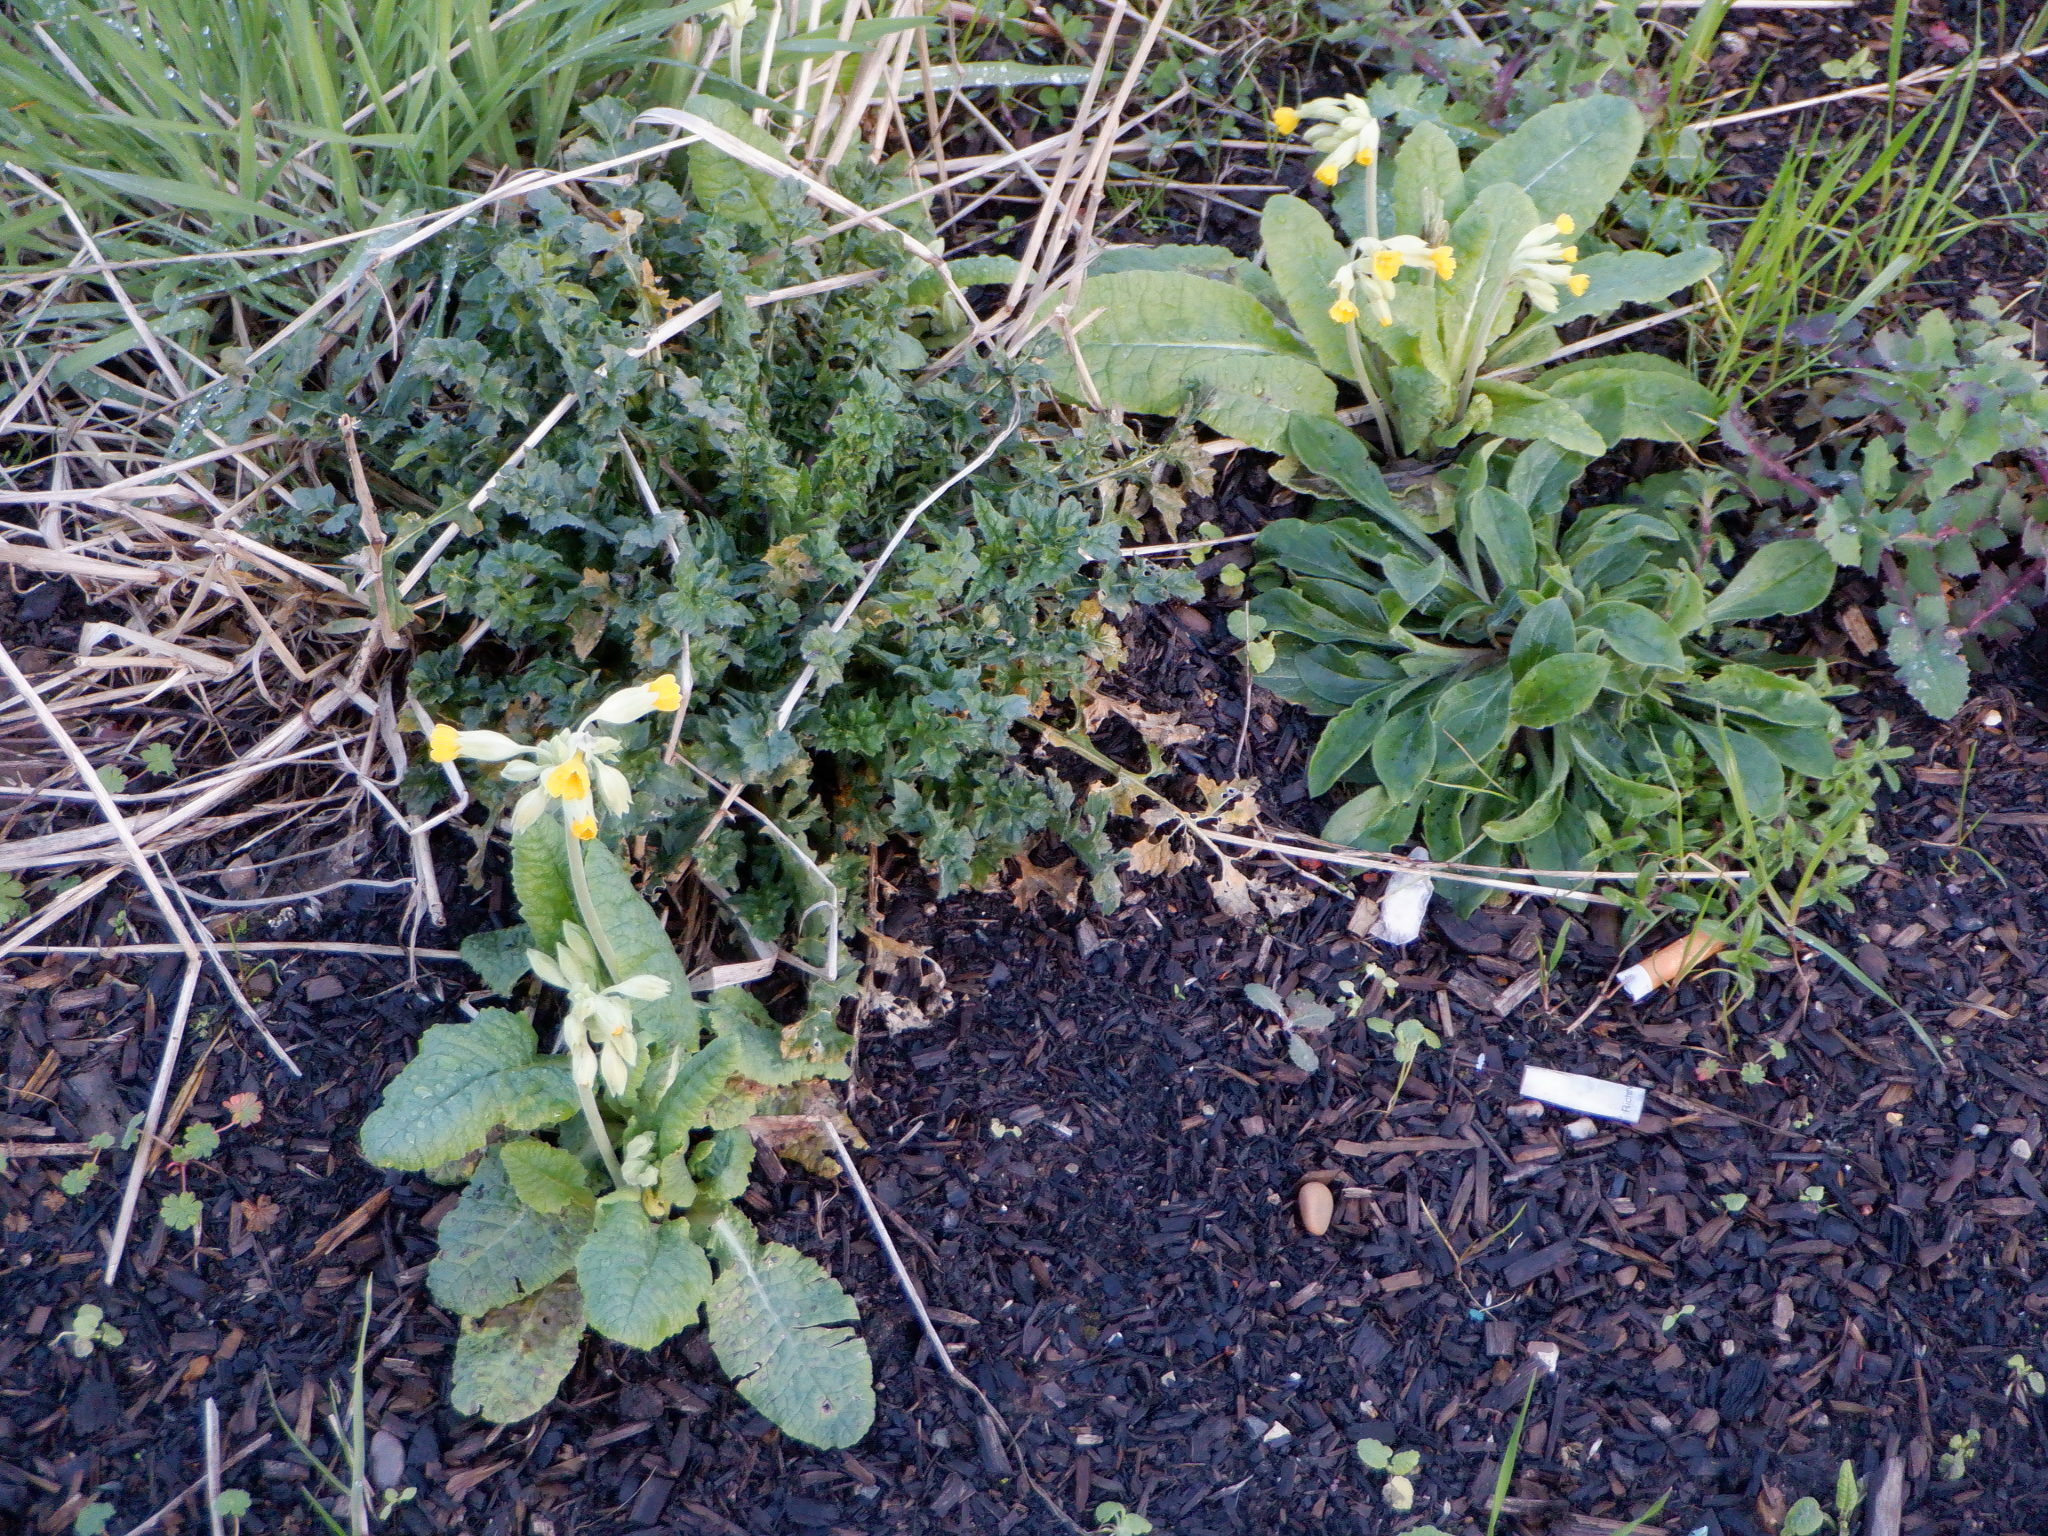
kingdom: Plantae
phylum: Tracheophyta
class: Magnoliopsida
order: Ericales
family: Primulaceae
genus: Primula
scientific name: Primula veris
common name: Cowslip
